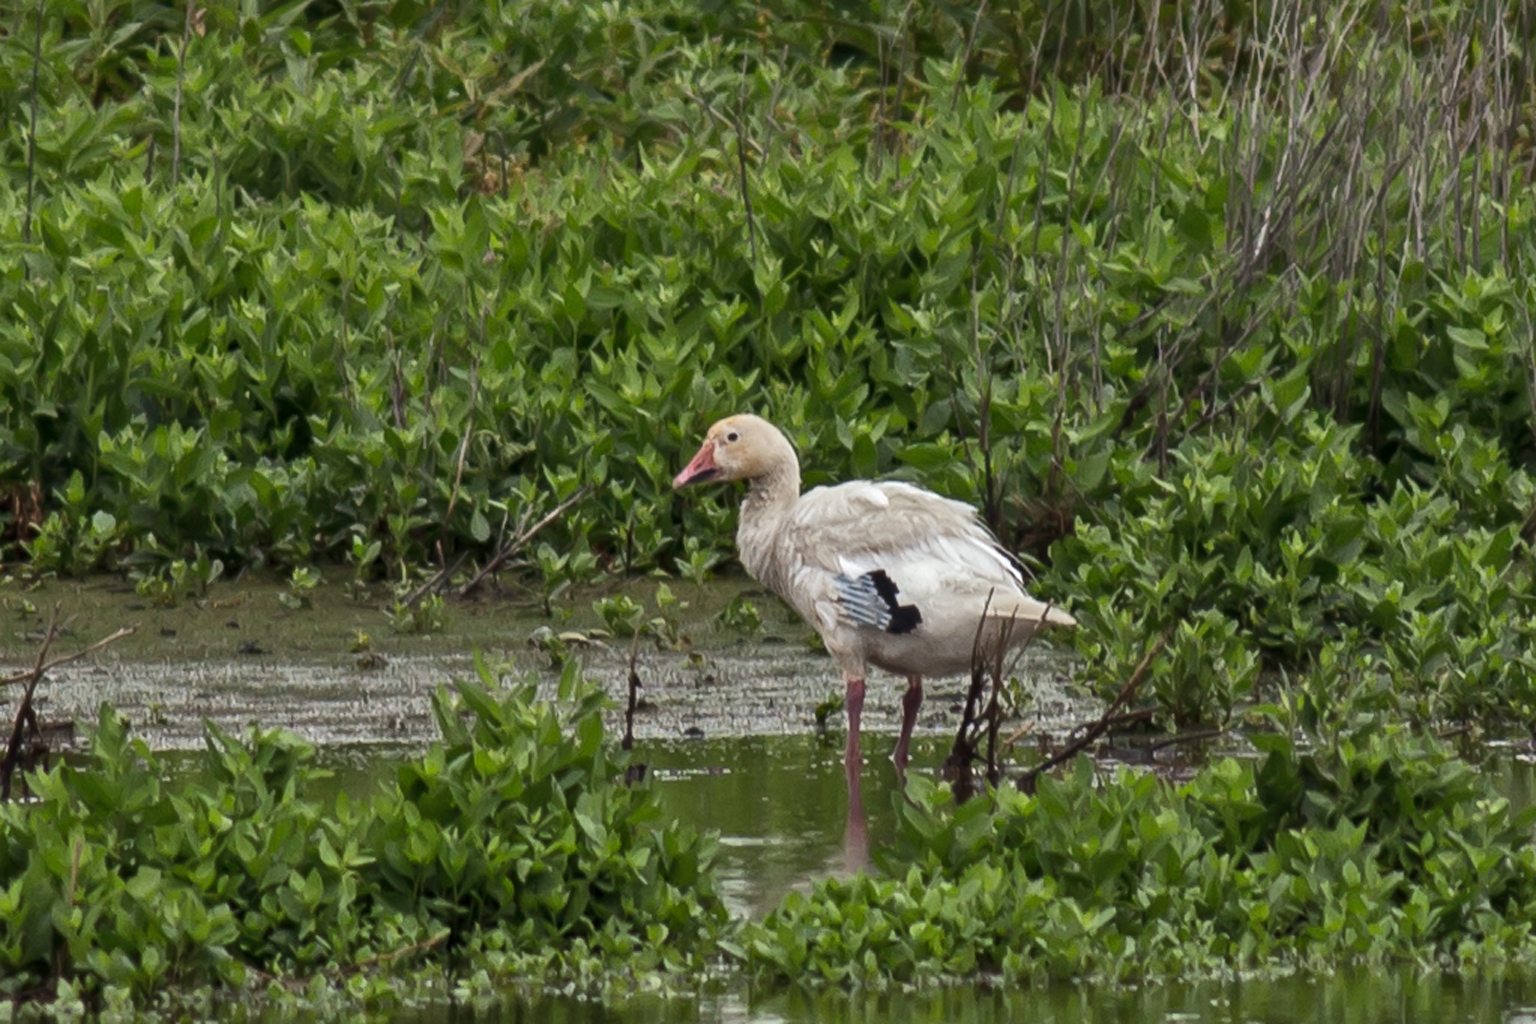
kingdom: Animalia
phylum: Chordata
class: Aves
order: Anseriformes
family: Anatidae
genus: Anser
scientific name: Anser caerulescens
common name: Snow goose
